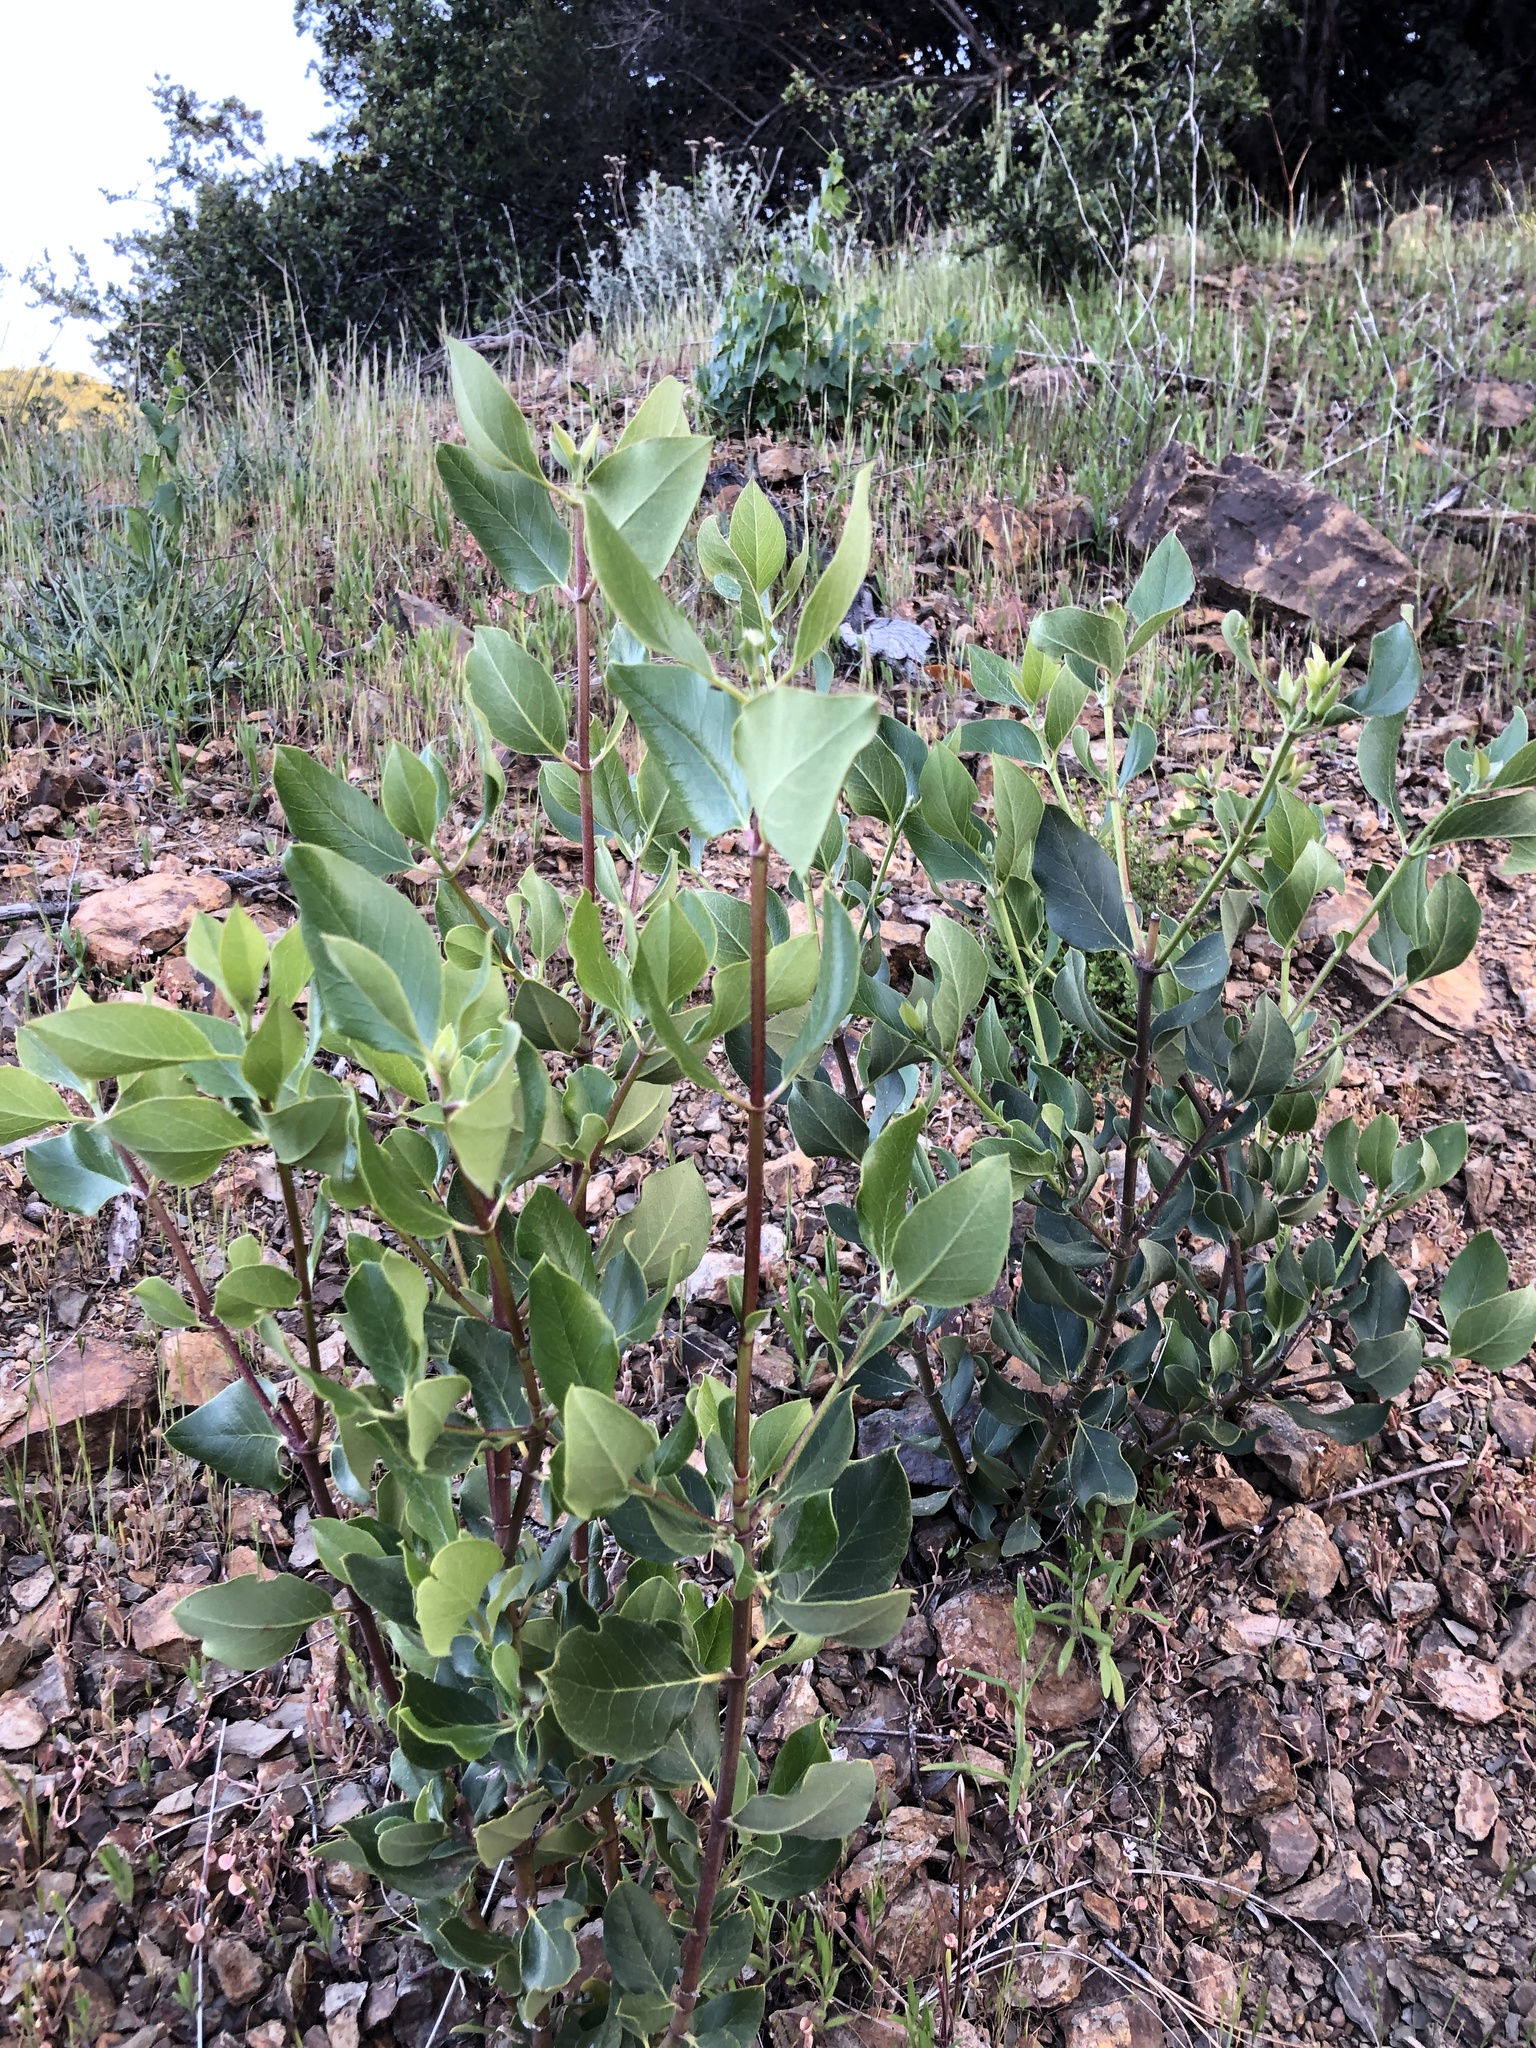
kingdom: Plantae
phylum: Tracheophyta
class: Magnoliopsida
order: Garryales
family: Garryaceae
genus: Garrya
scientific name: Garrya fremontii
